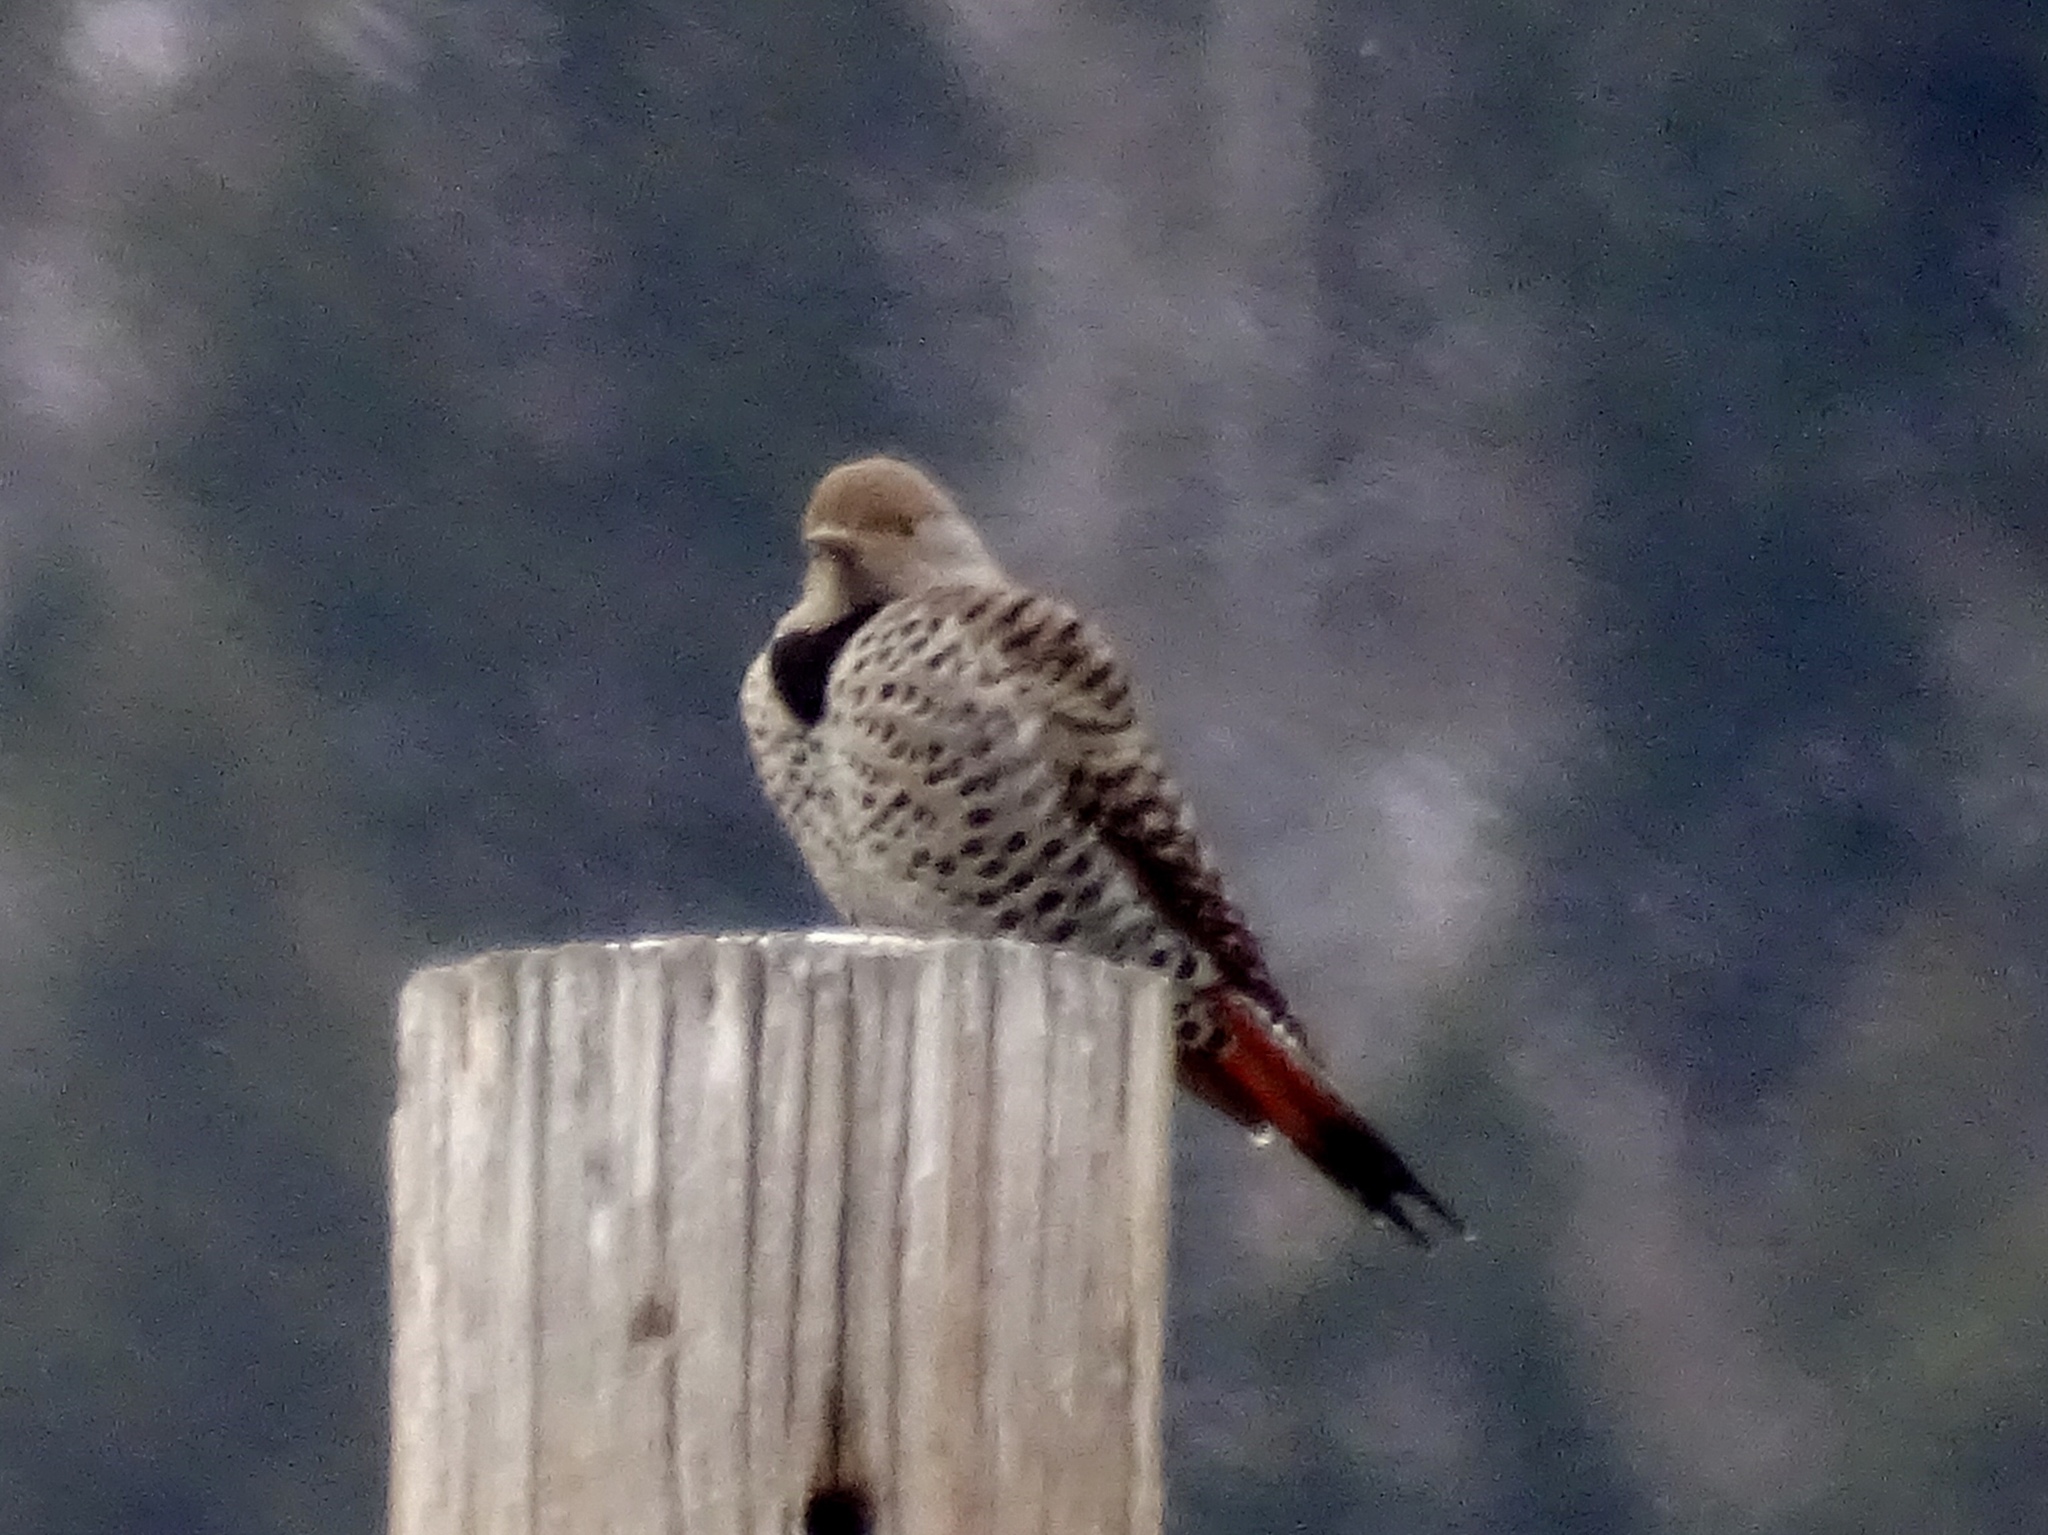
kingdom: Animalia
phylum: Chordata
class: Aves
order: Piciformes
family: Picidae
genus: Colaptes
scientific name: Colaptes auratus
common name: Northern flicker
